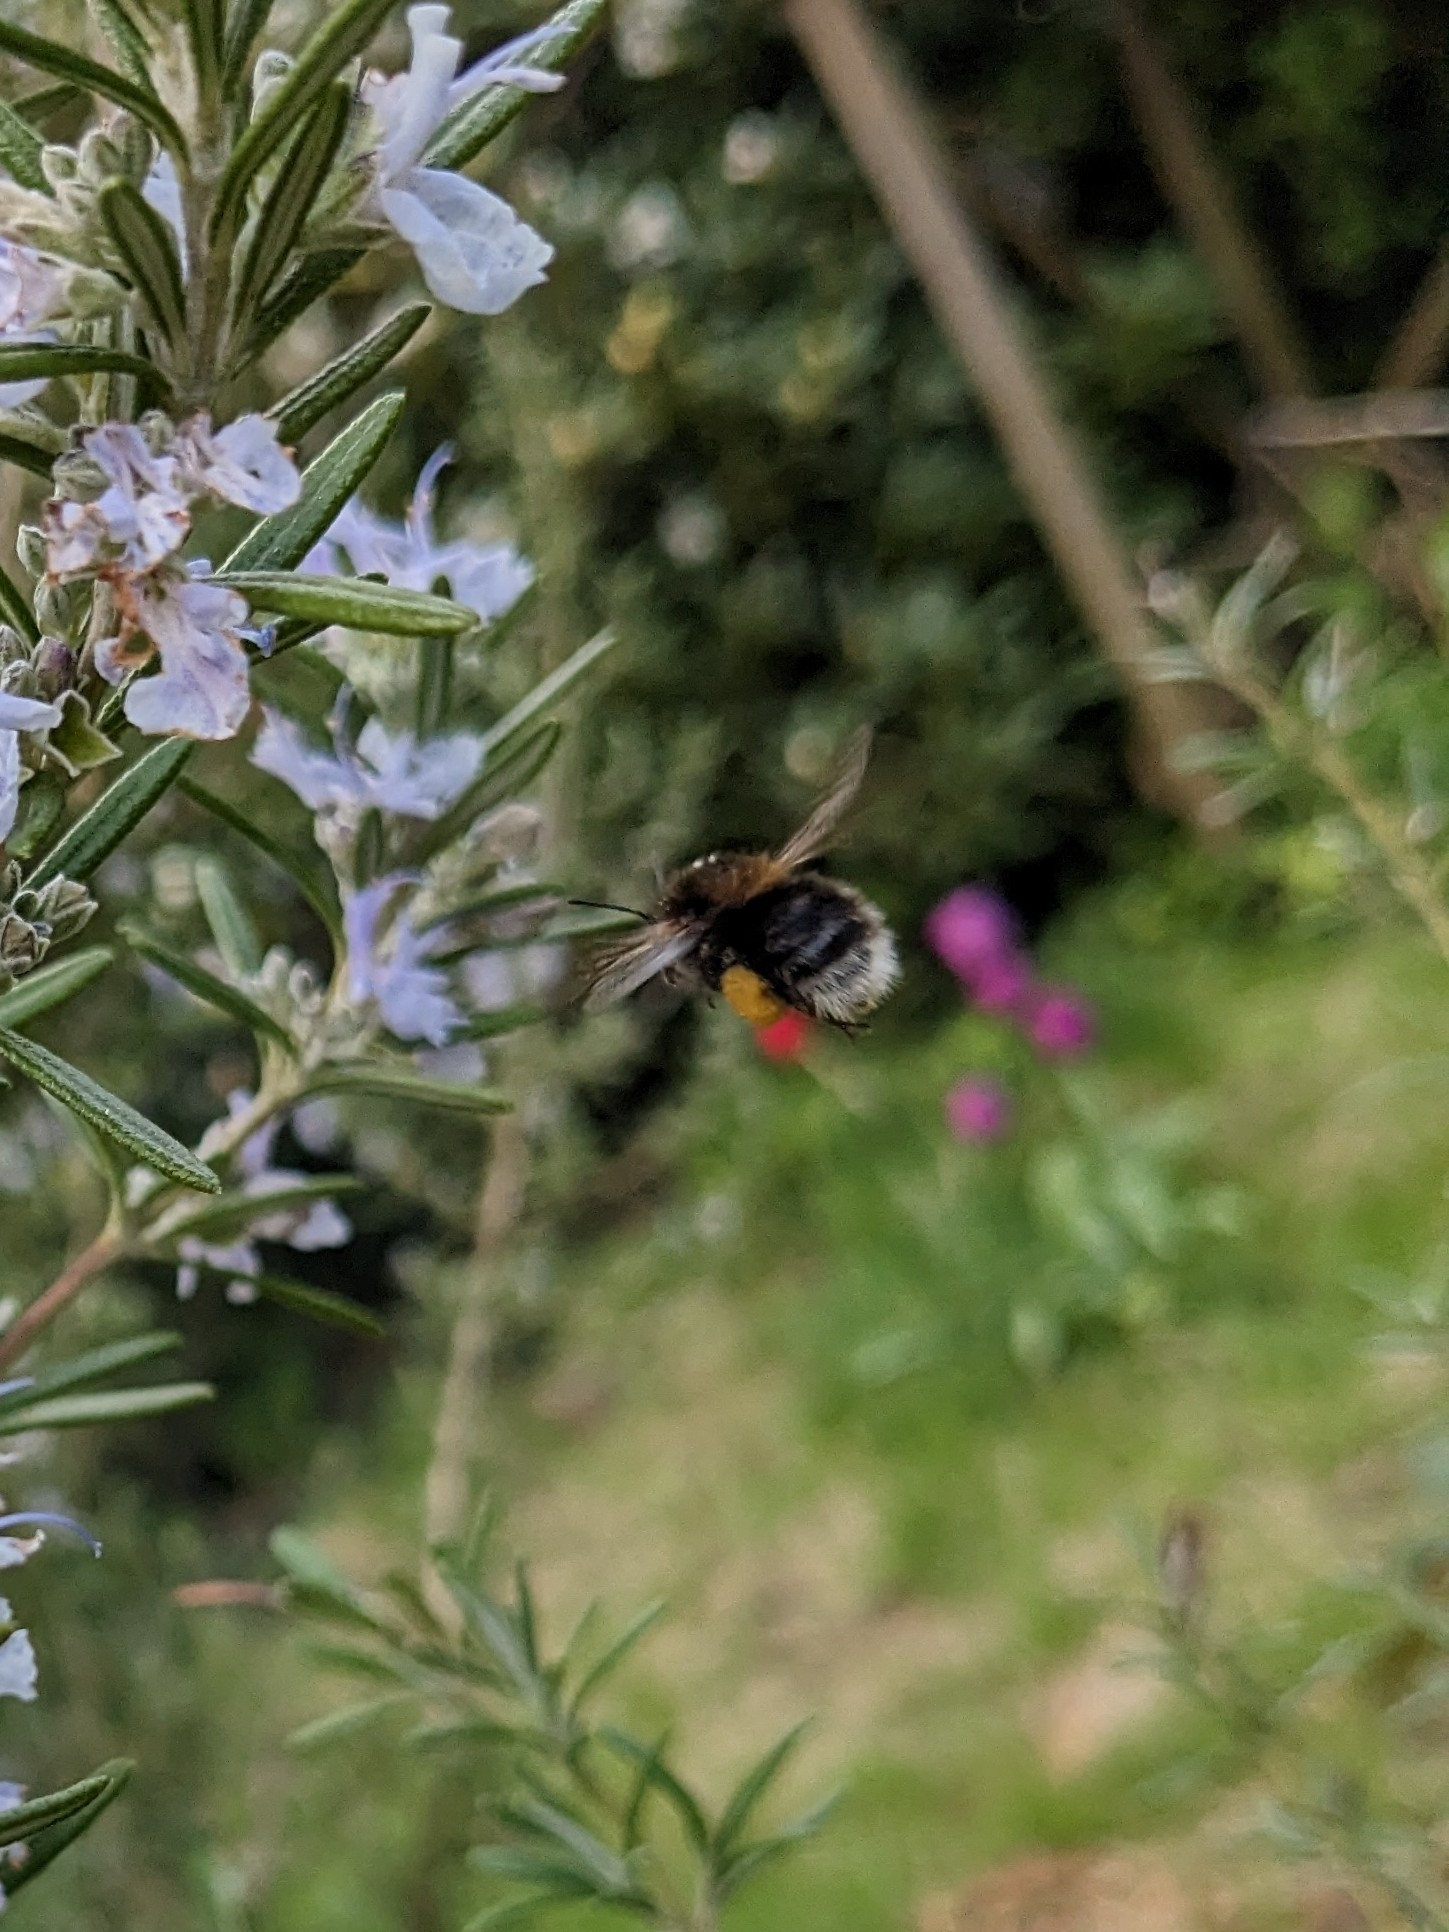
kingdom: Animalia
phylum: Arthropoda
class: Insecta
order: Hymenoptera
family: Apidae
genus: Bombus
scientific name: Bombus hypnorum
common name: New garden bumblebee
